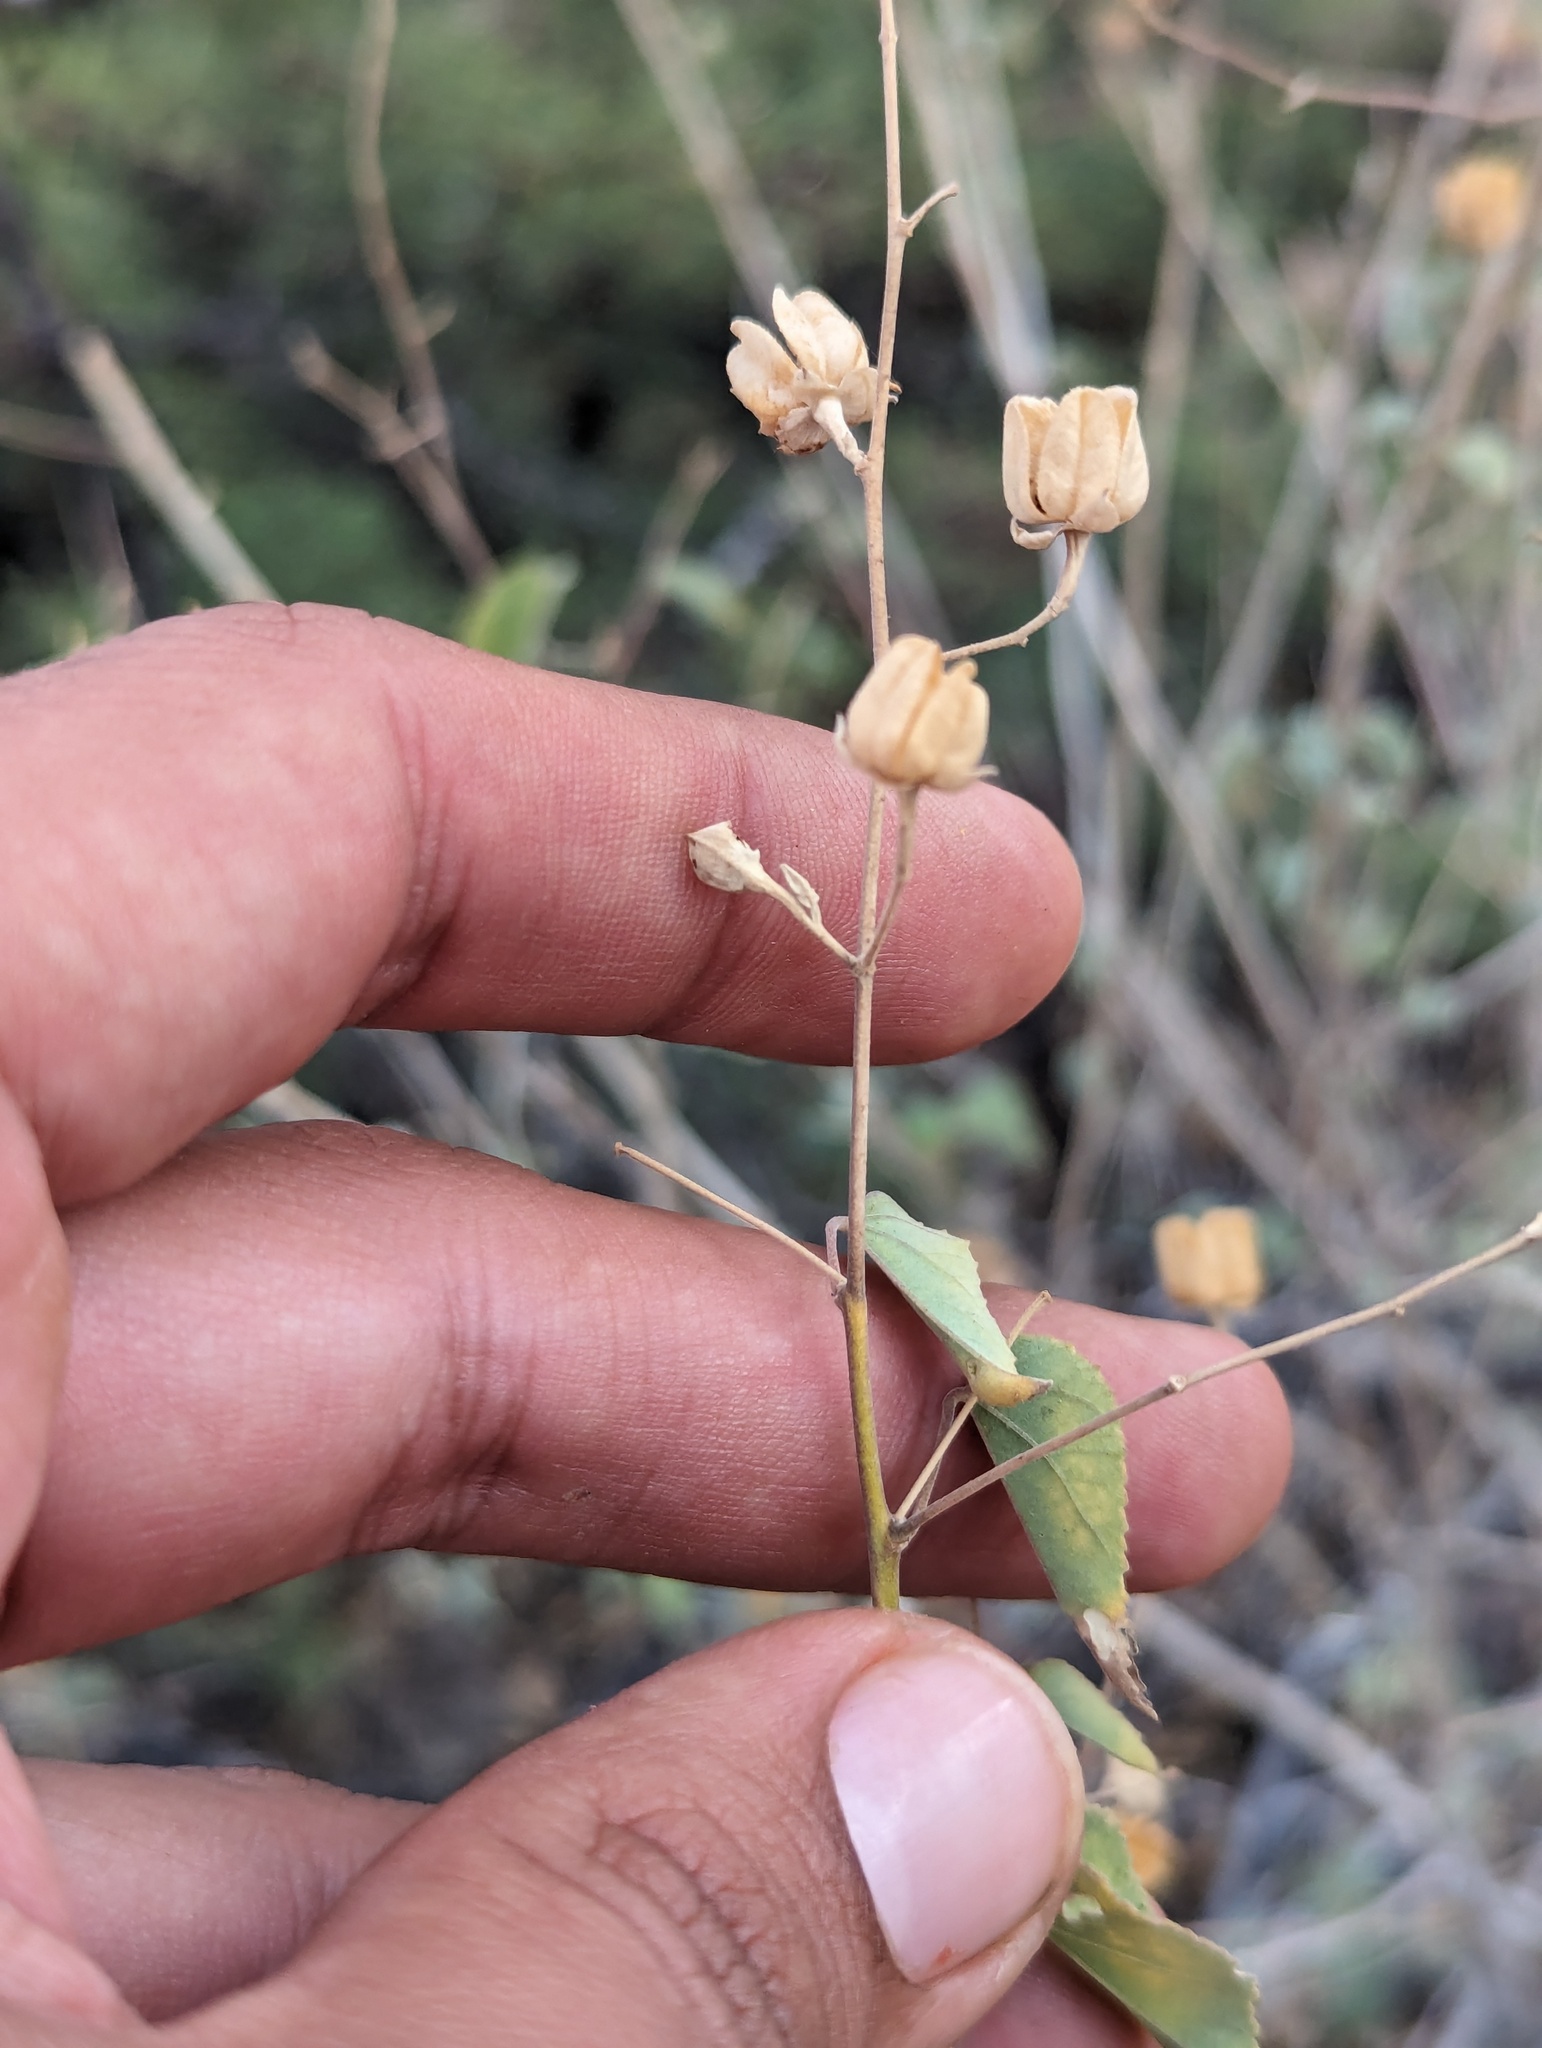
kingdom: Plantae
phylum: Tracheophyta
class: Magnoliopsida
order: Malvales
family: Malvaceae
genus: Abutilon
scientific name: Abutilon incanum
